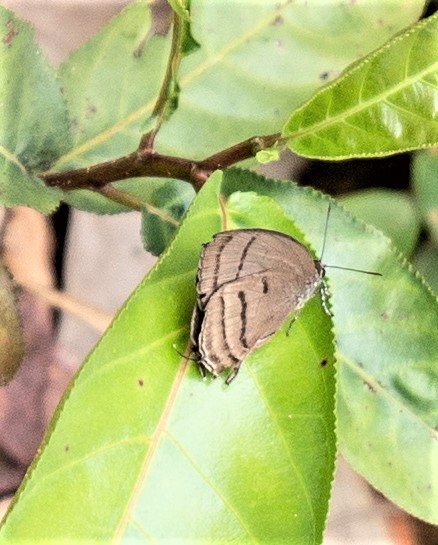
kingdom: Animalia
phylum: Arthropoda
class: Insecta
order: Lepidoptera
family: Lycaenidae
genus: Theritas
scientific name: Theritas mavors
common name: Deep-green hairstreak
